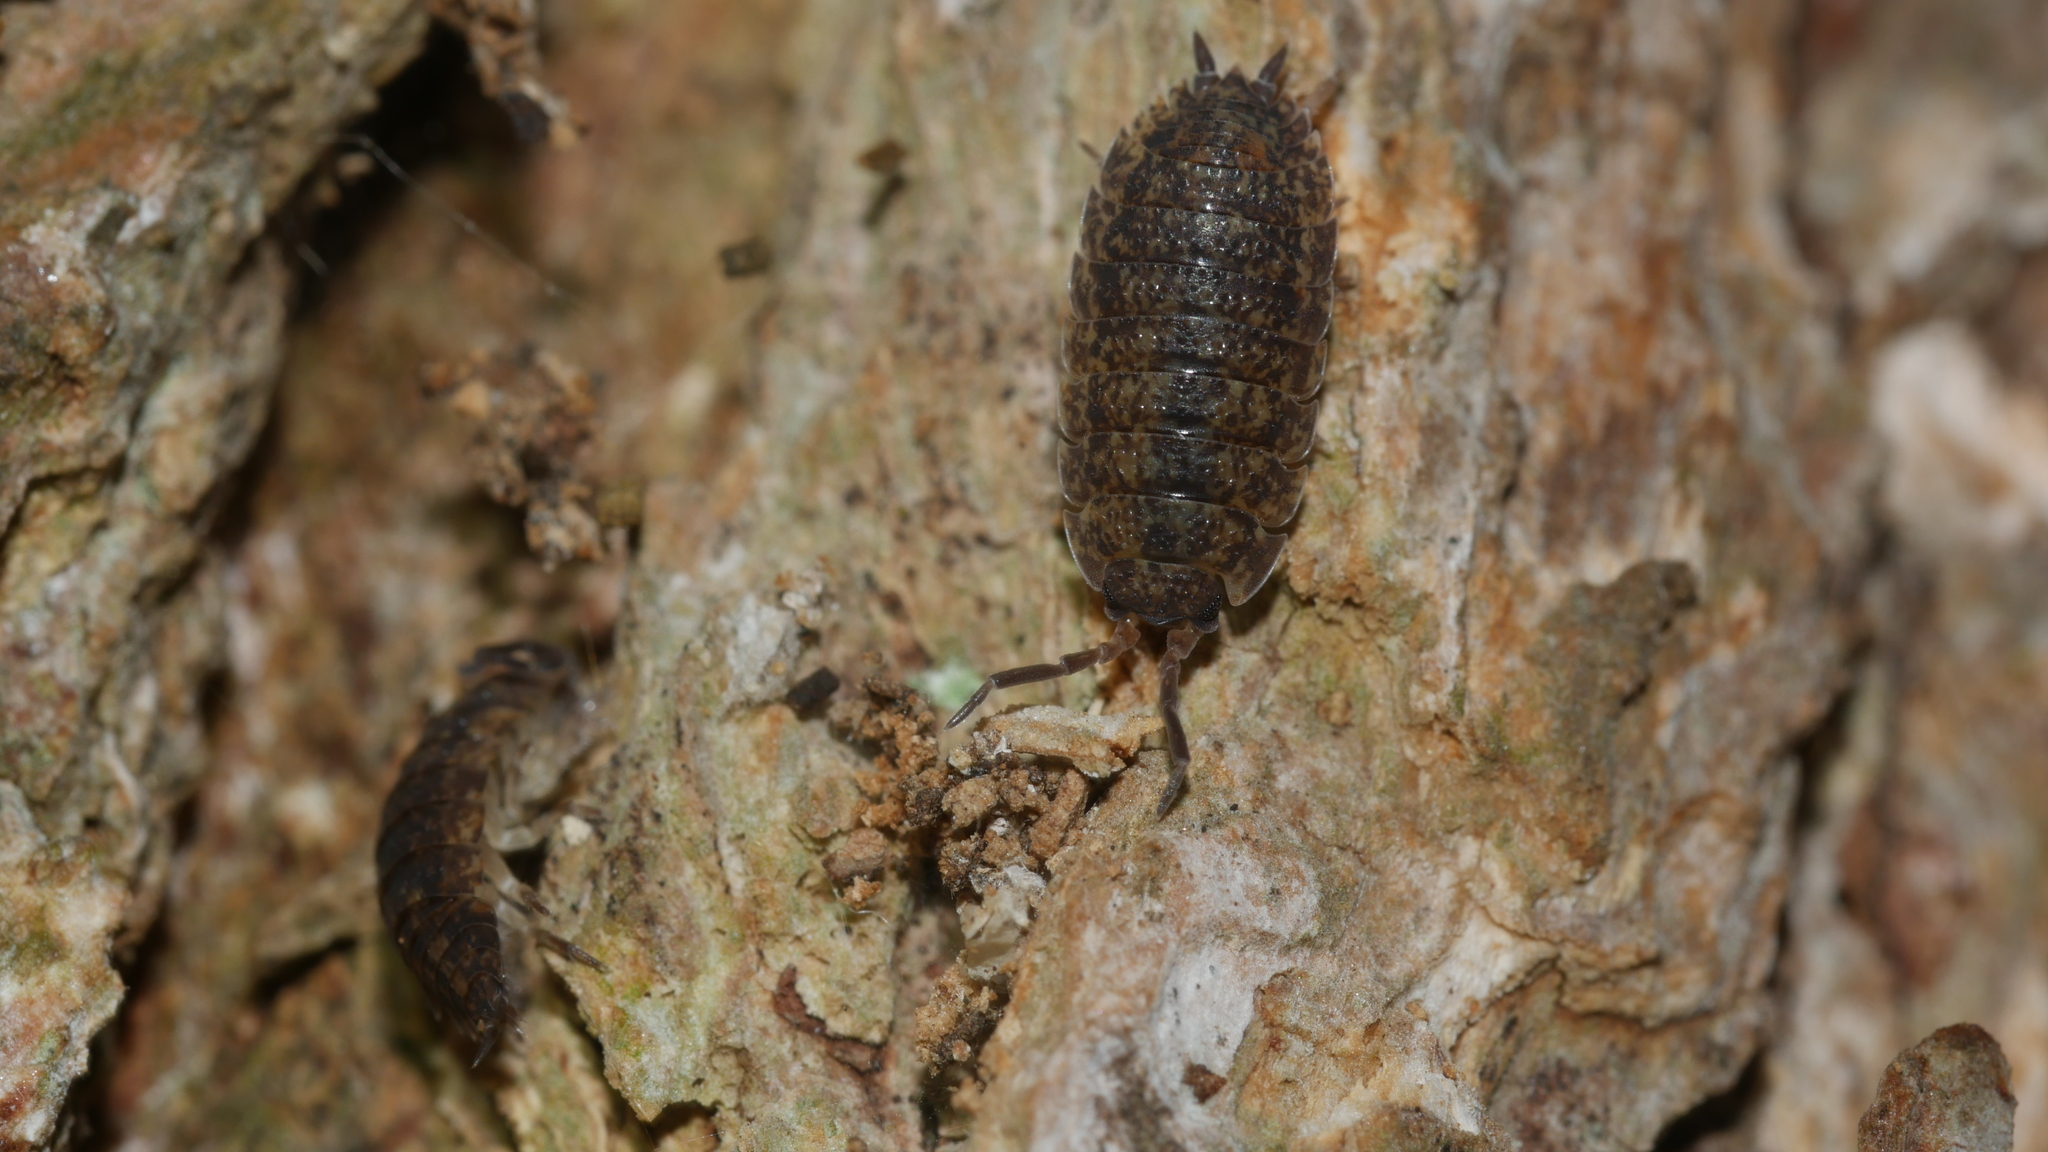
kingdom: Animalia
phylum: Arthropoda
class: Malacostraca
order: Isopoda
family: Porcellionidae
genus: Porcellio
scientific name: Porcellio scaber
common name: Common rough woodlouse
